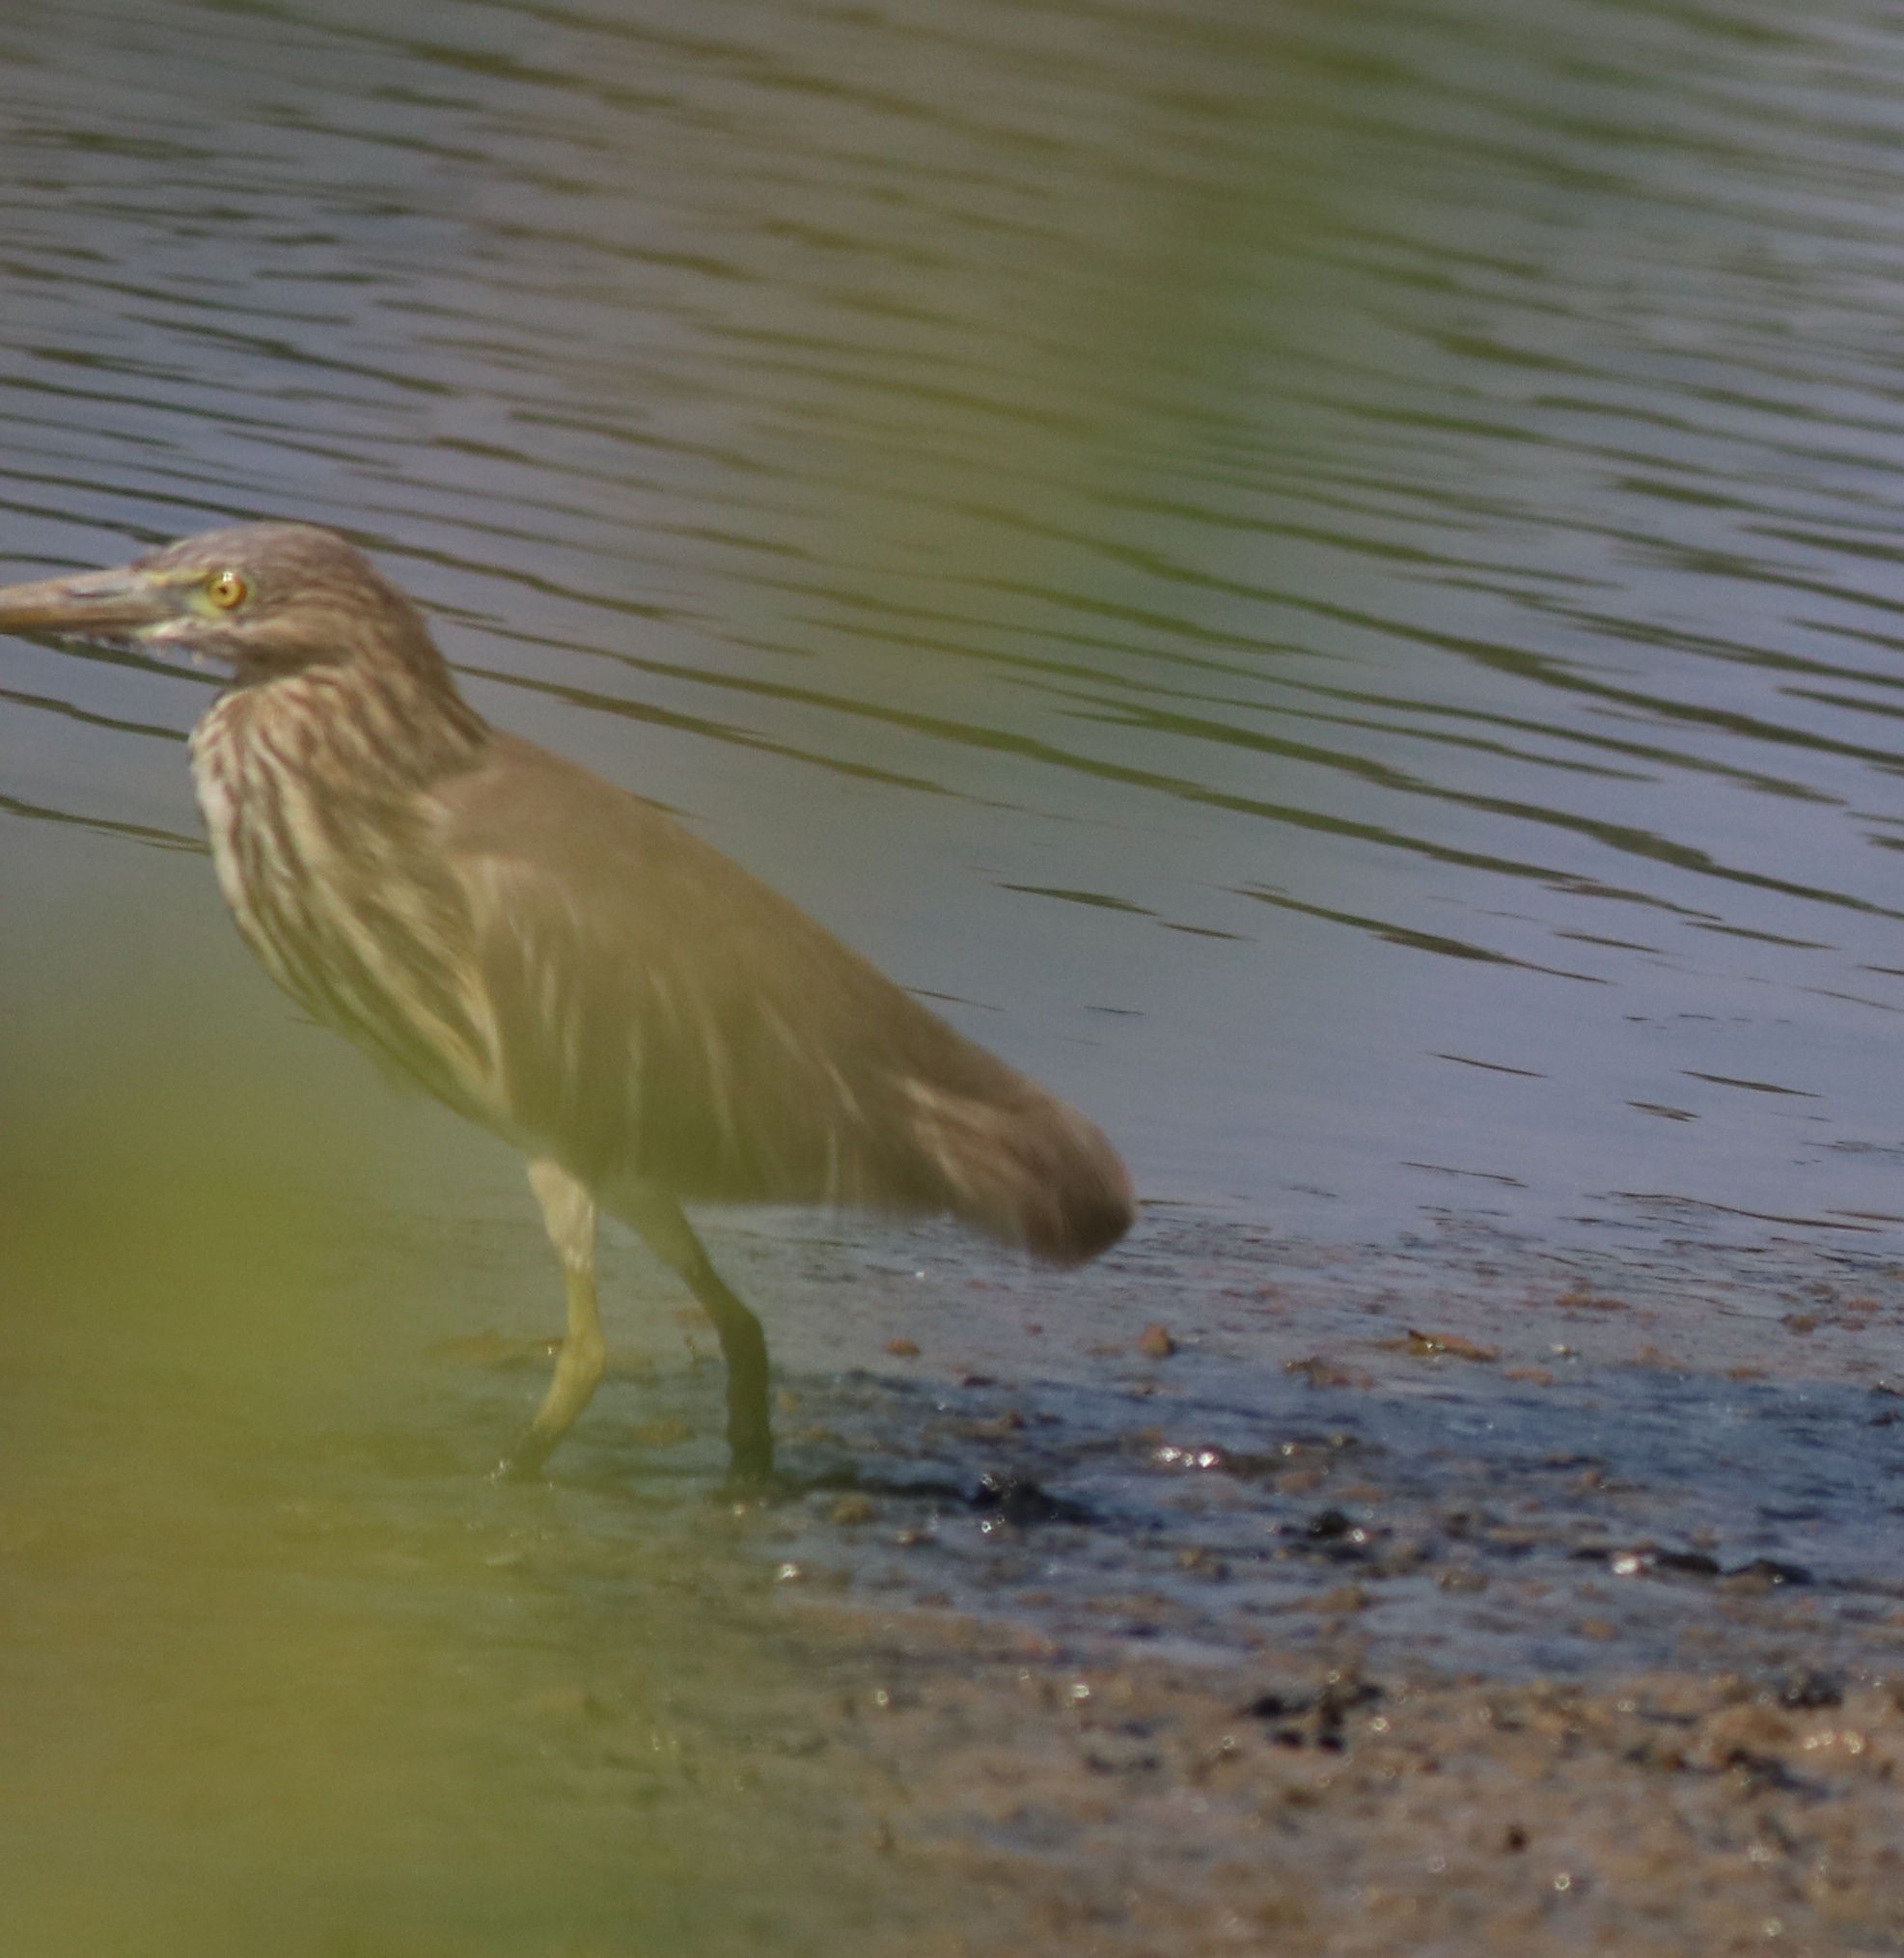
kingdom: Animalia
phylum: Chordata
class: Aves
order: Pelecaniformes
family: Ardeidae
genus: Ardeola
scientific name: Ardeola grayii
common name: Indian pond heron
